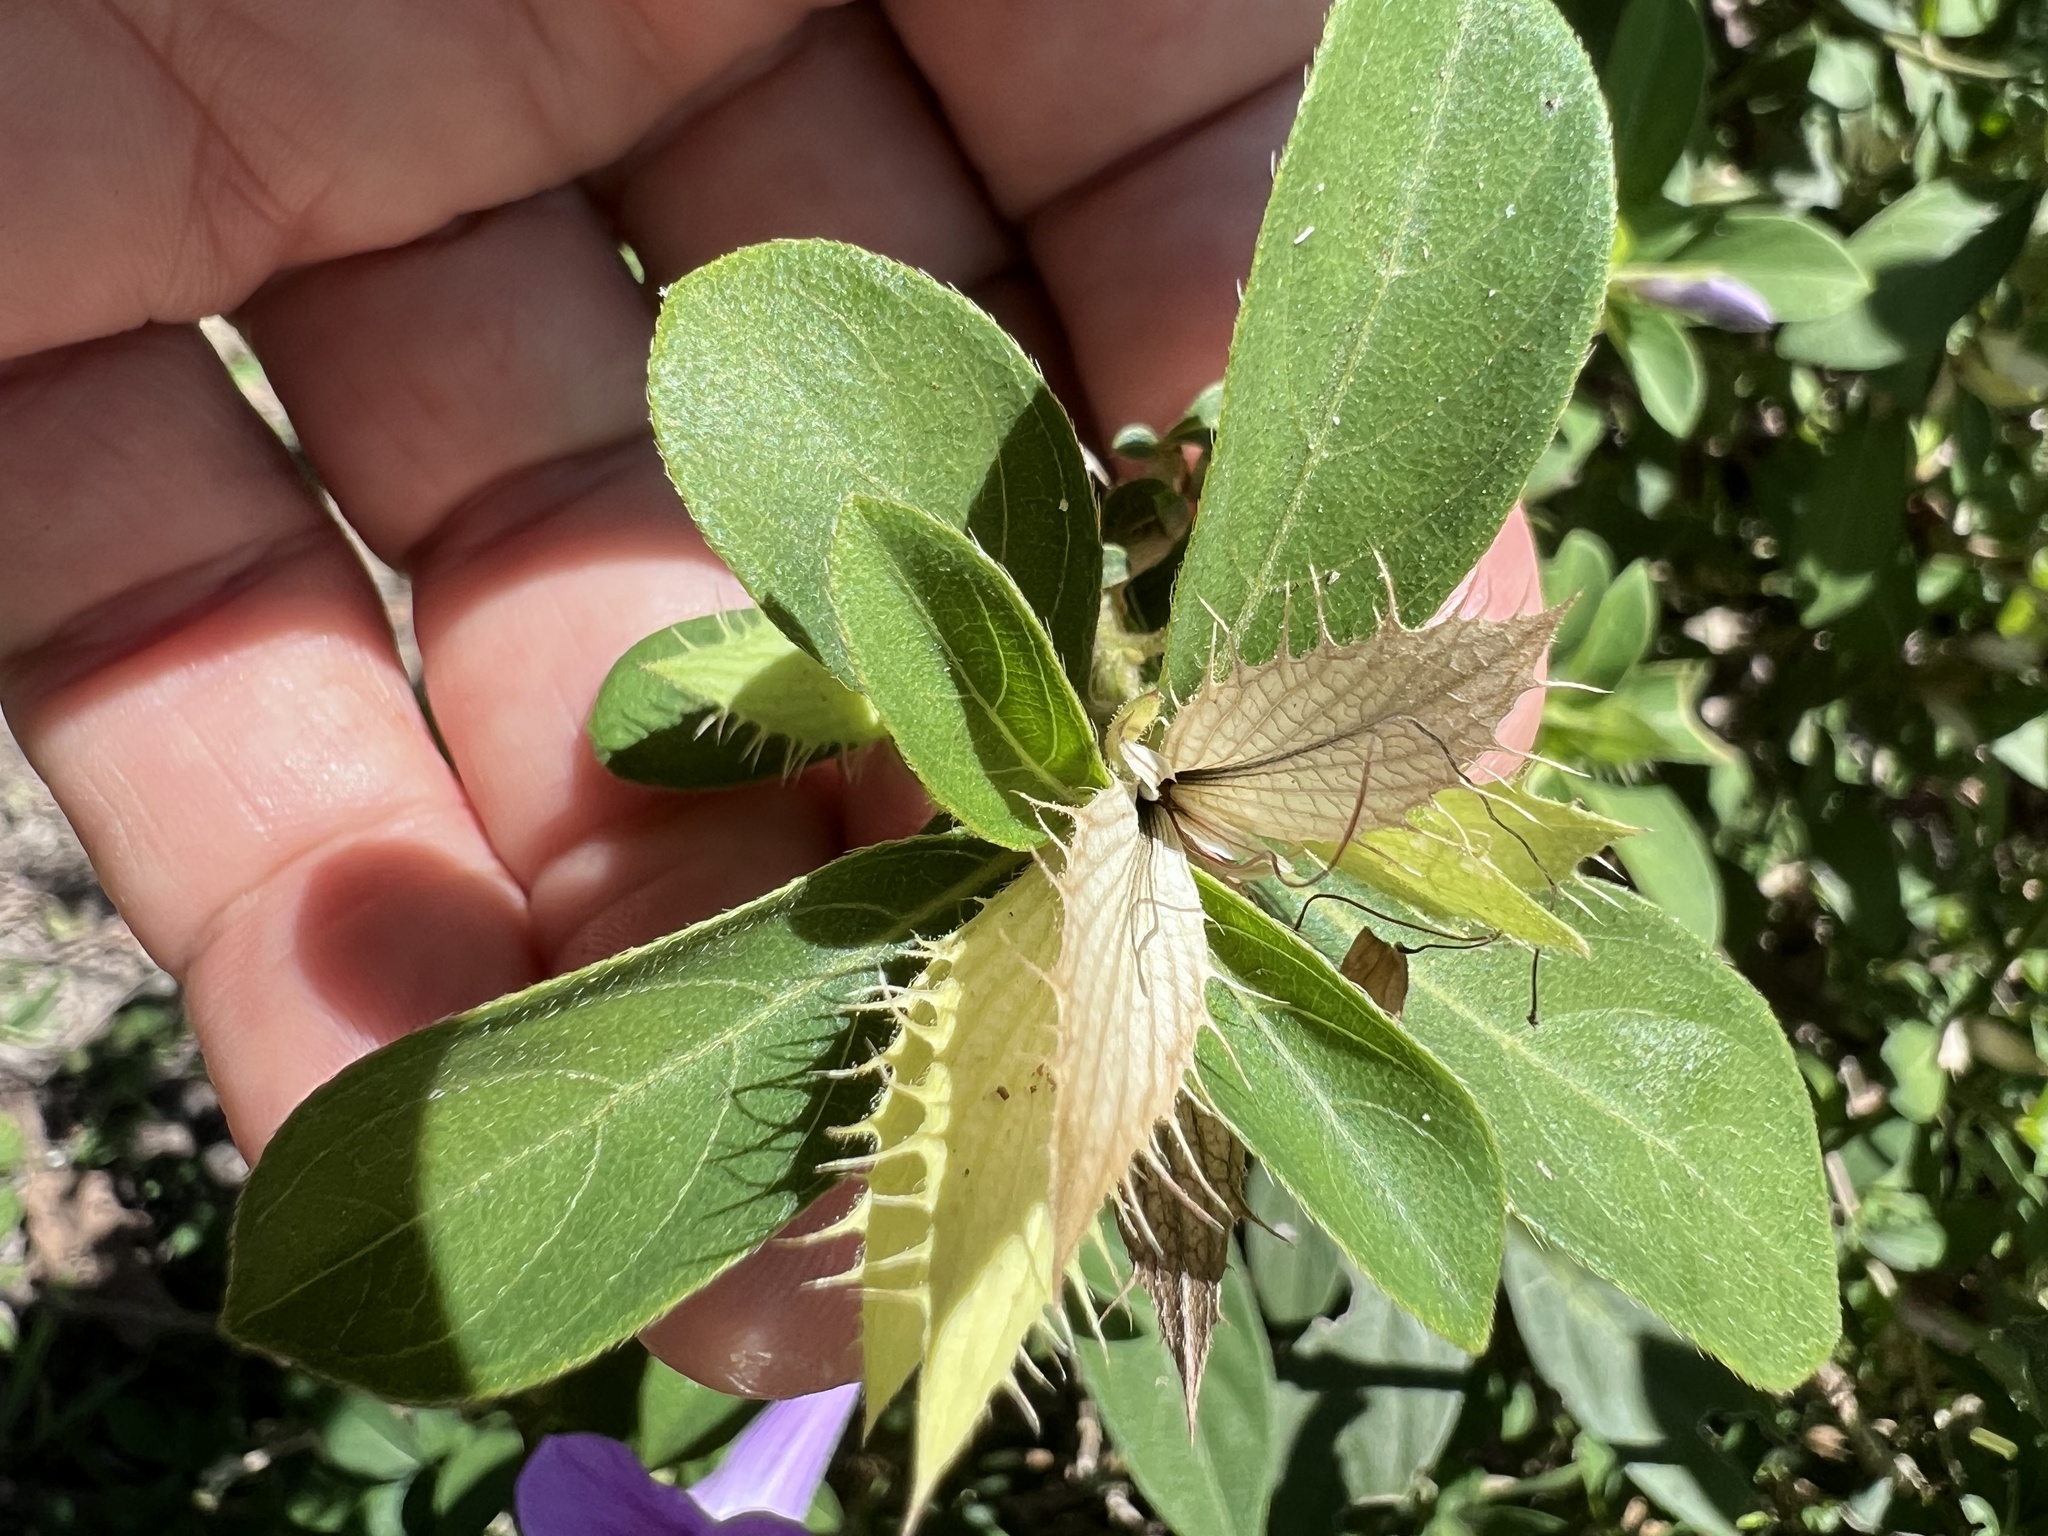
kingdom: Plantae
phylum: Tracheophyta
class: Magnoliopsida
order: Lamiales
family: Acanthaceae
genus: Barleria
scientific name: Barleria cristata
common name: Crested philippine violet
